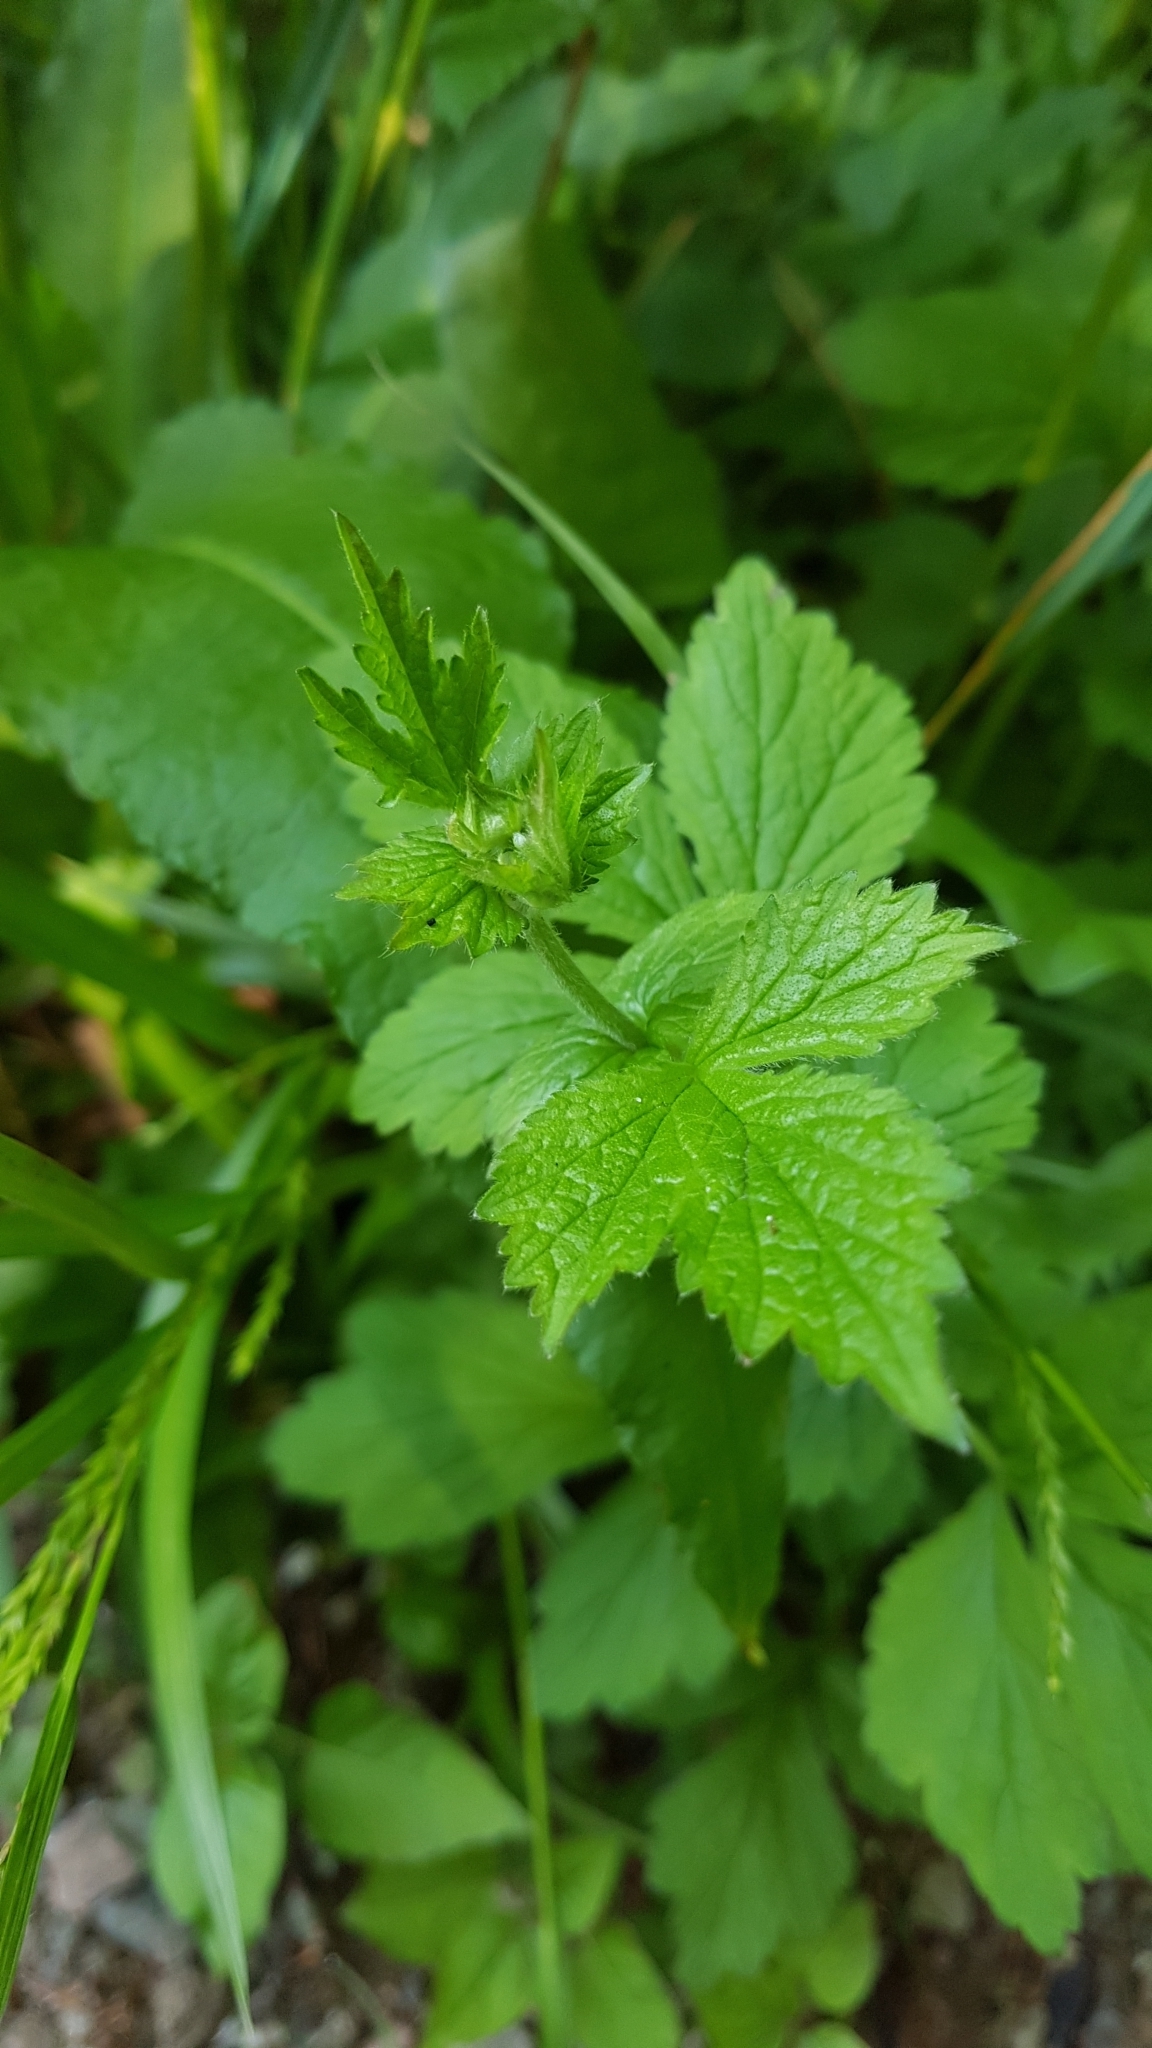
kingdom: Plantae
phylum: Tracheophyta
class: Magnoliopsida
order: Rosales
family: Rosaceae
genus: Geum
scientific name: Geum urbanum
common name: Wood avens
